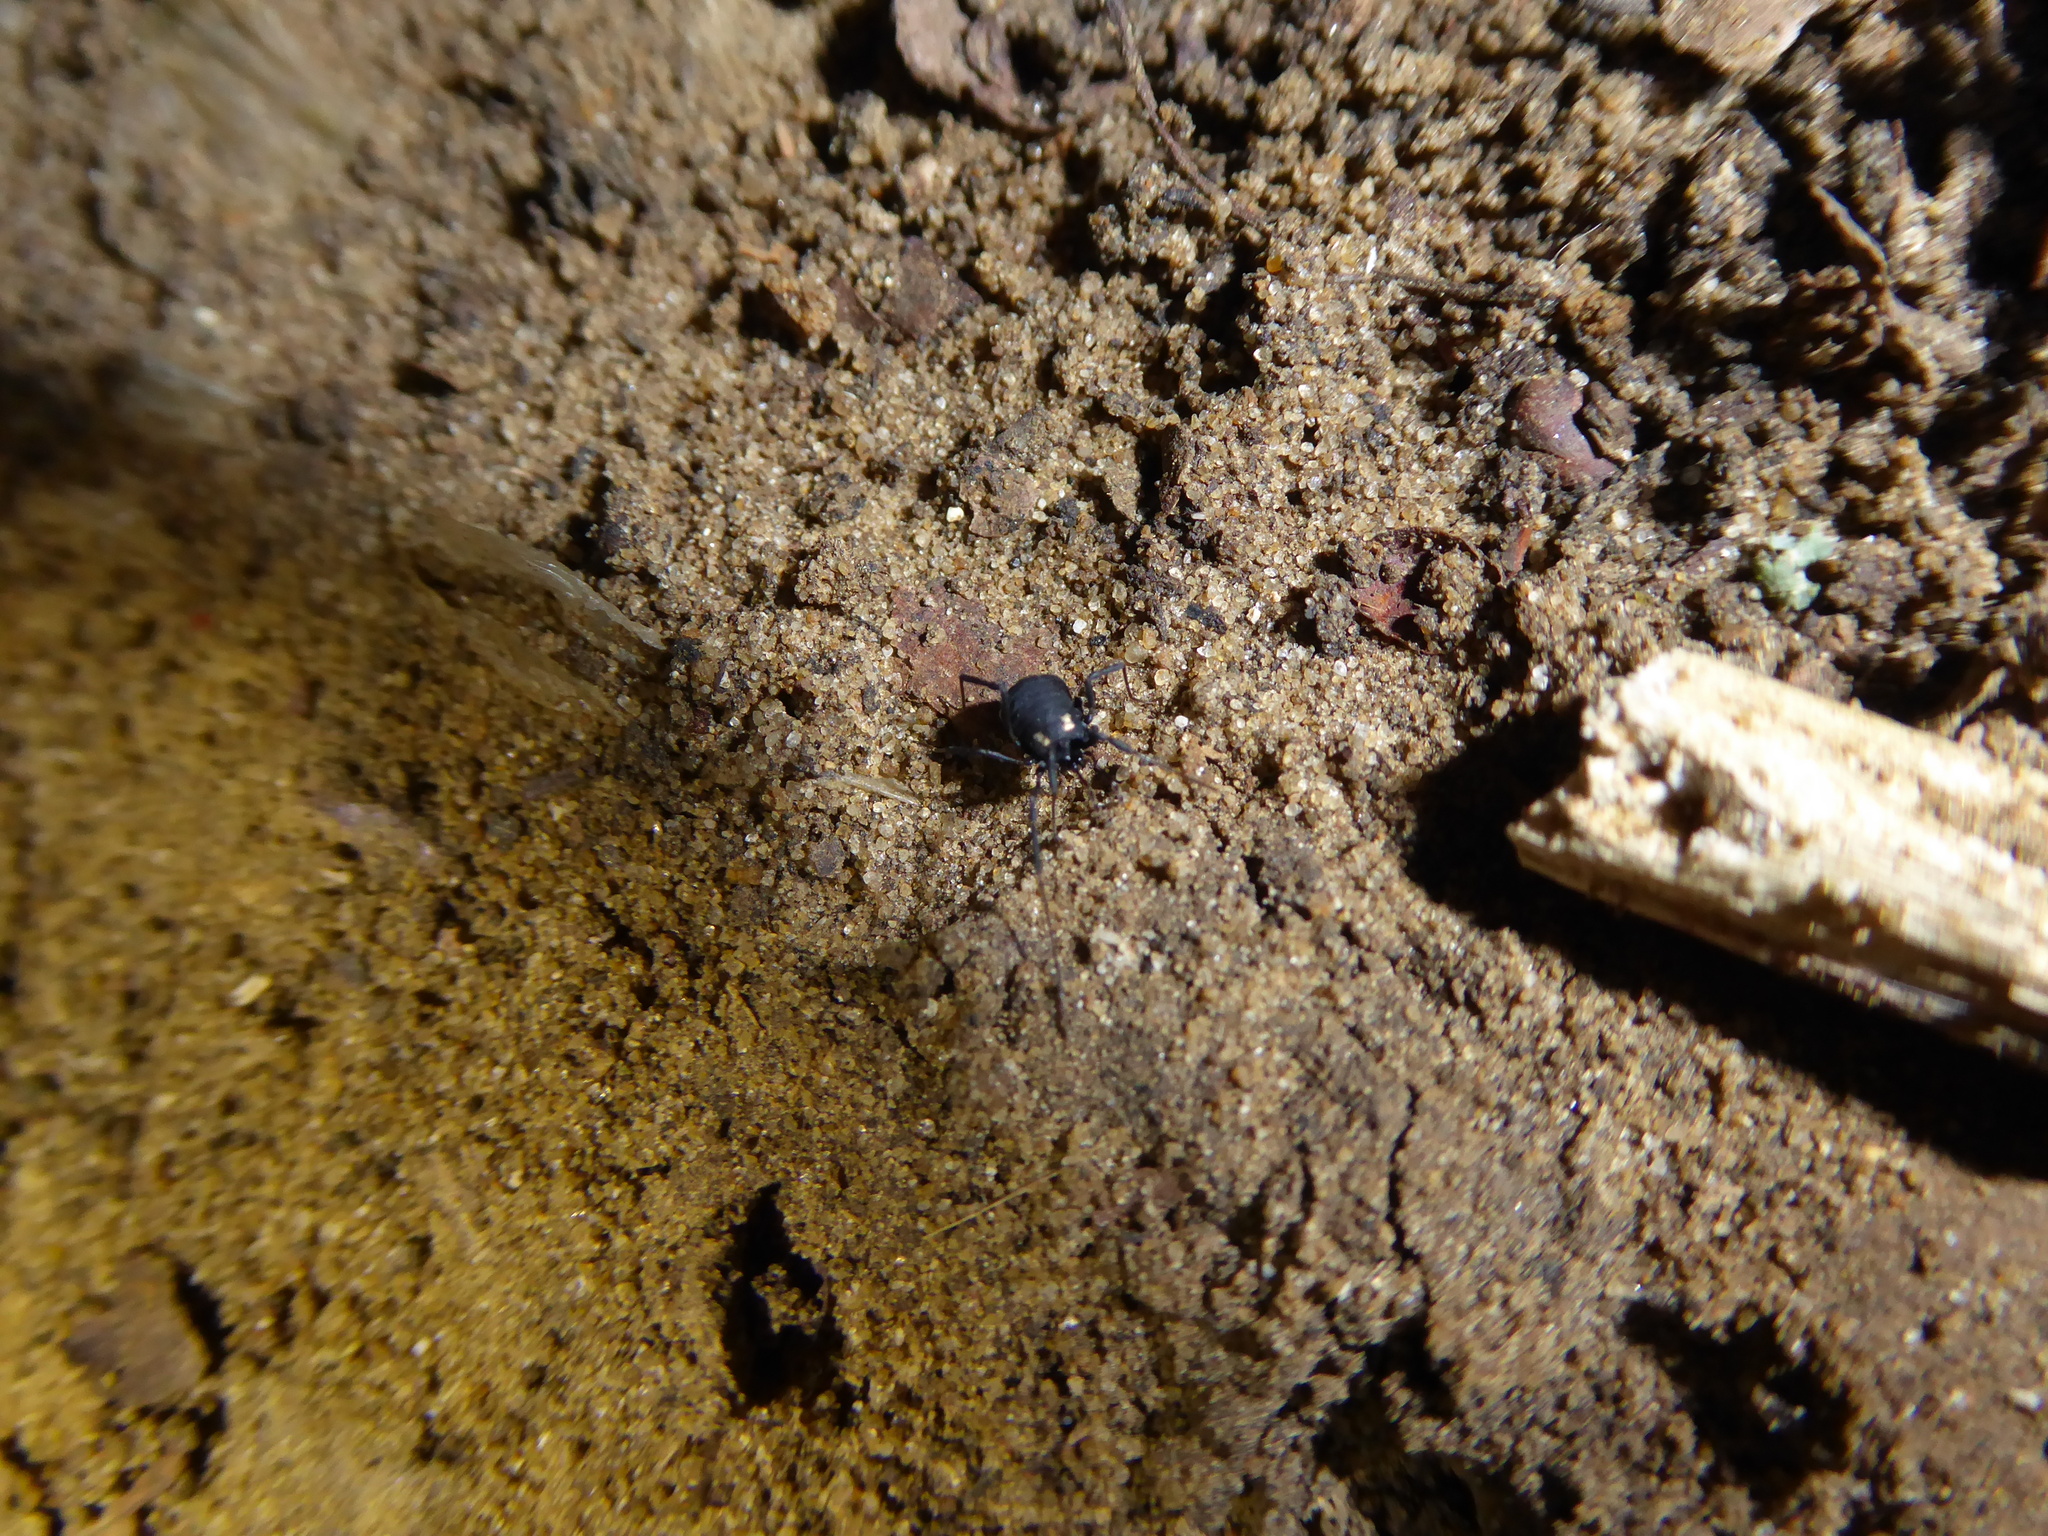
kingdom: Animalia
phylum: Arthropoda
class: Arachnida
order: Opiliones
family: Nemastomatidae
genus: Nemastoma
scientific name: Nemastoma bimaculatum
